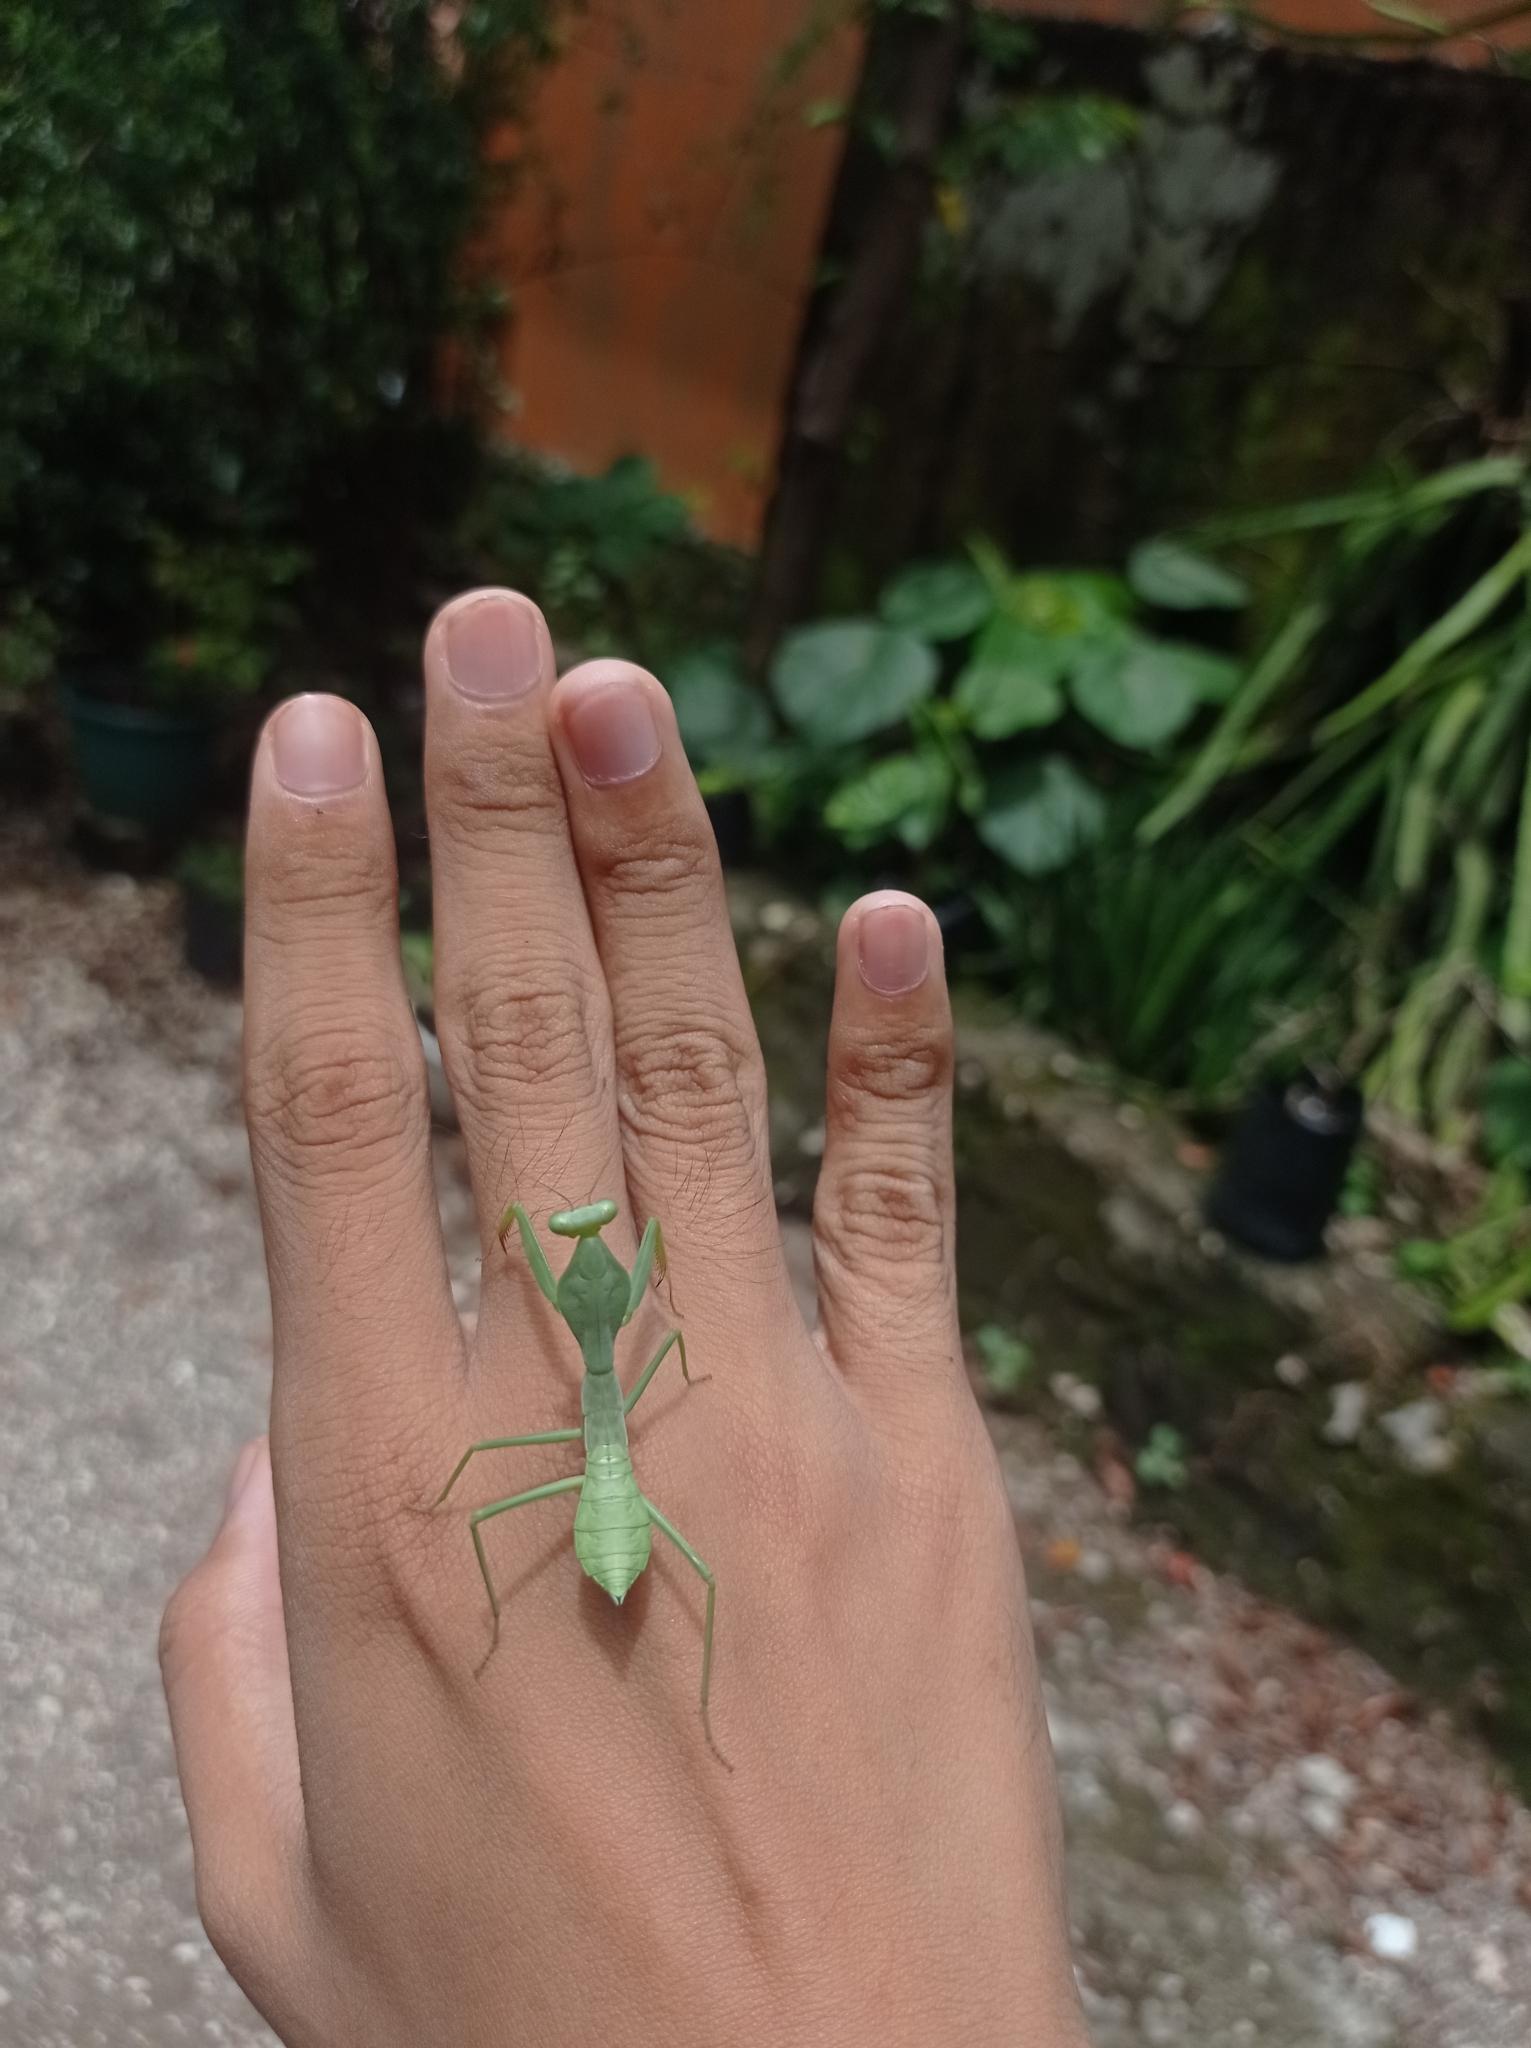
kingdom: Animalia
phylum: Arthropoda
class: Insecta
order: Mantodea
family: Mantidae
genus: Rhombodera
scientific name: Rhombodera kirbyi
